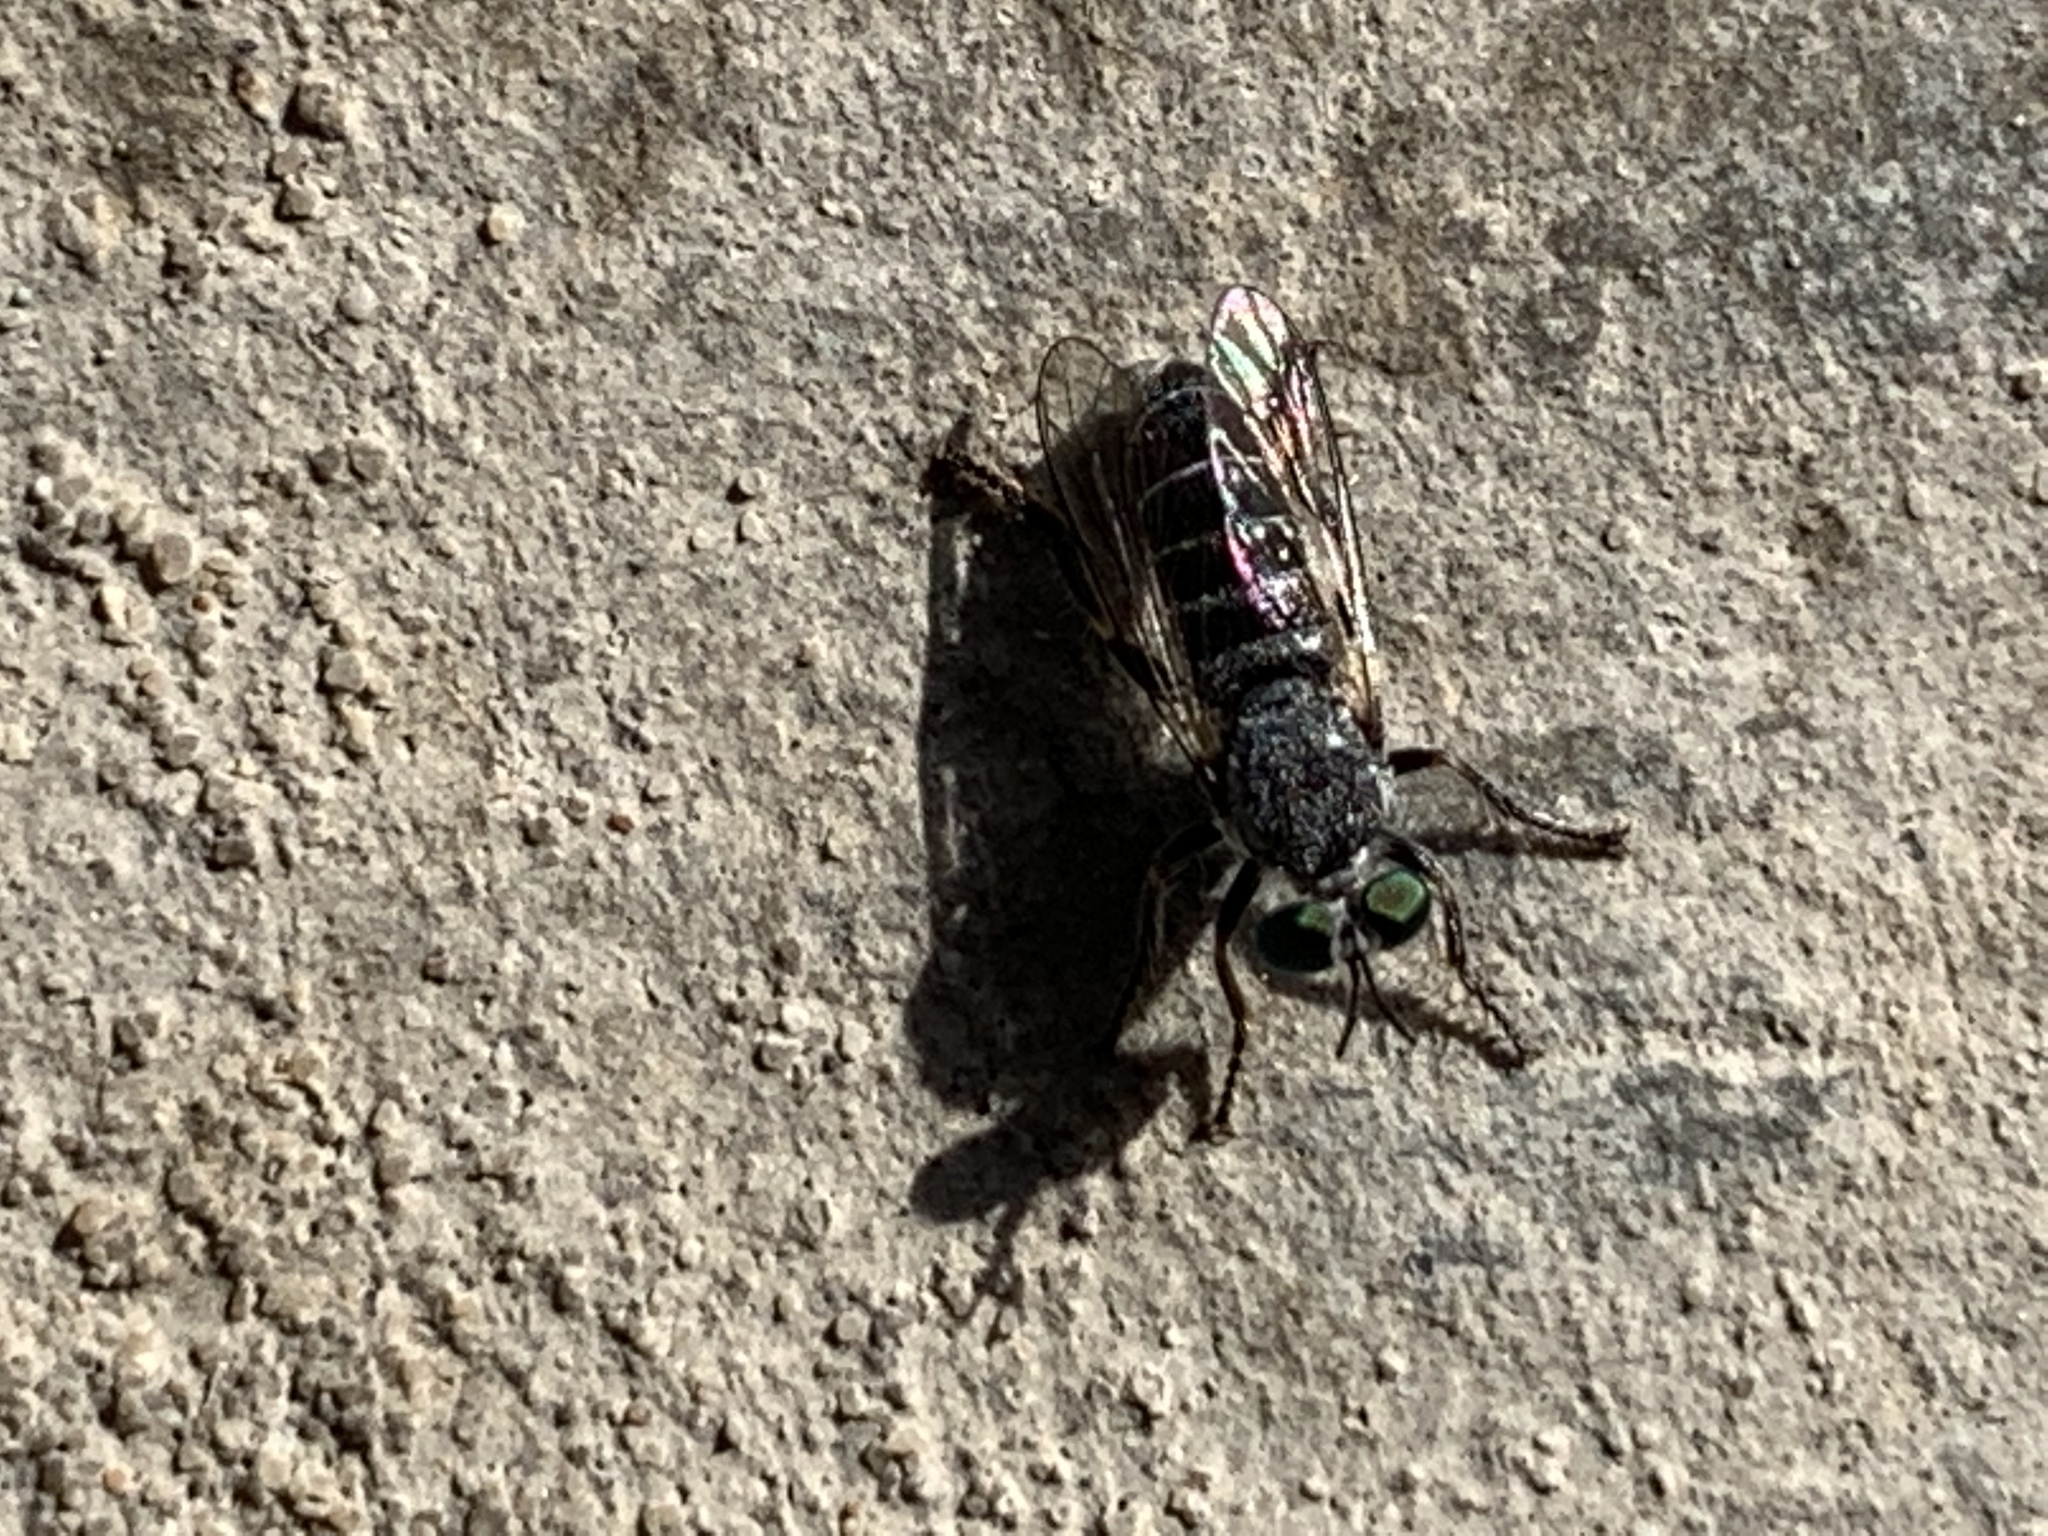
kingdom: Animalia
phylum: Arthropoda
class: Insecta
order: Diptera
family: Asilidae
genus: Atomosia
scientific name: Atomosia
